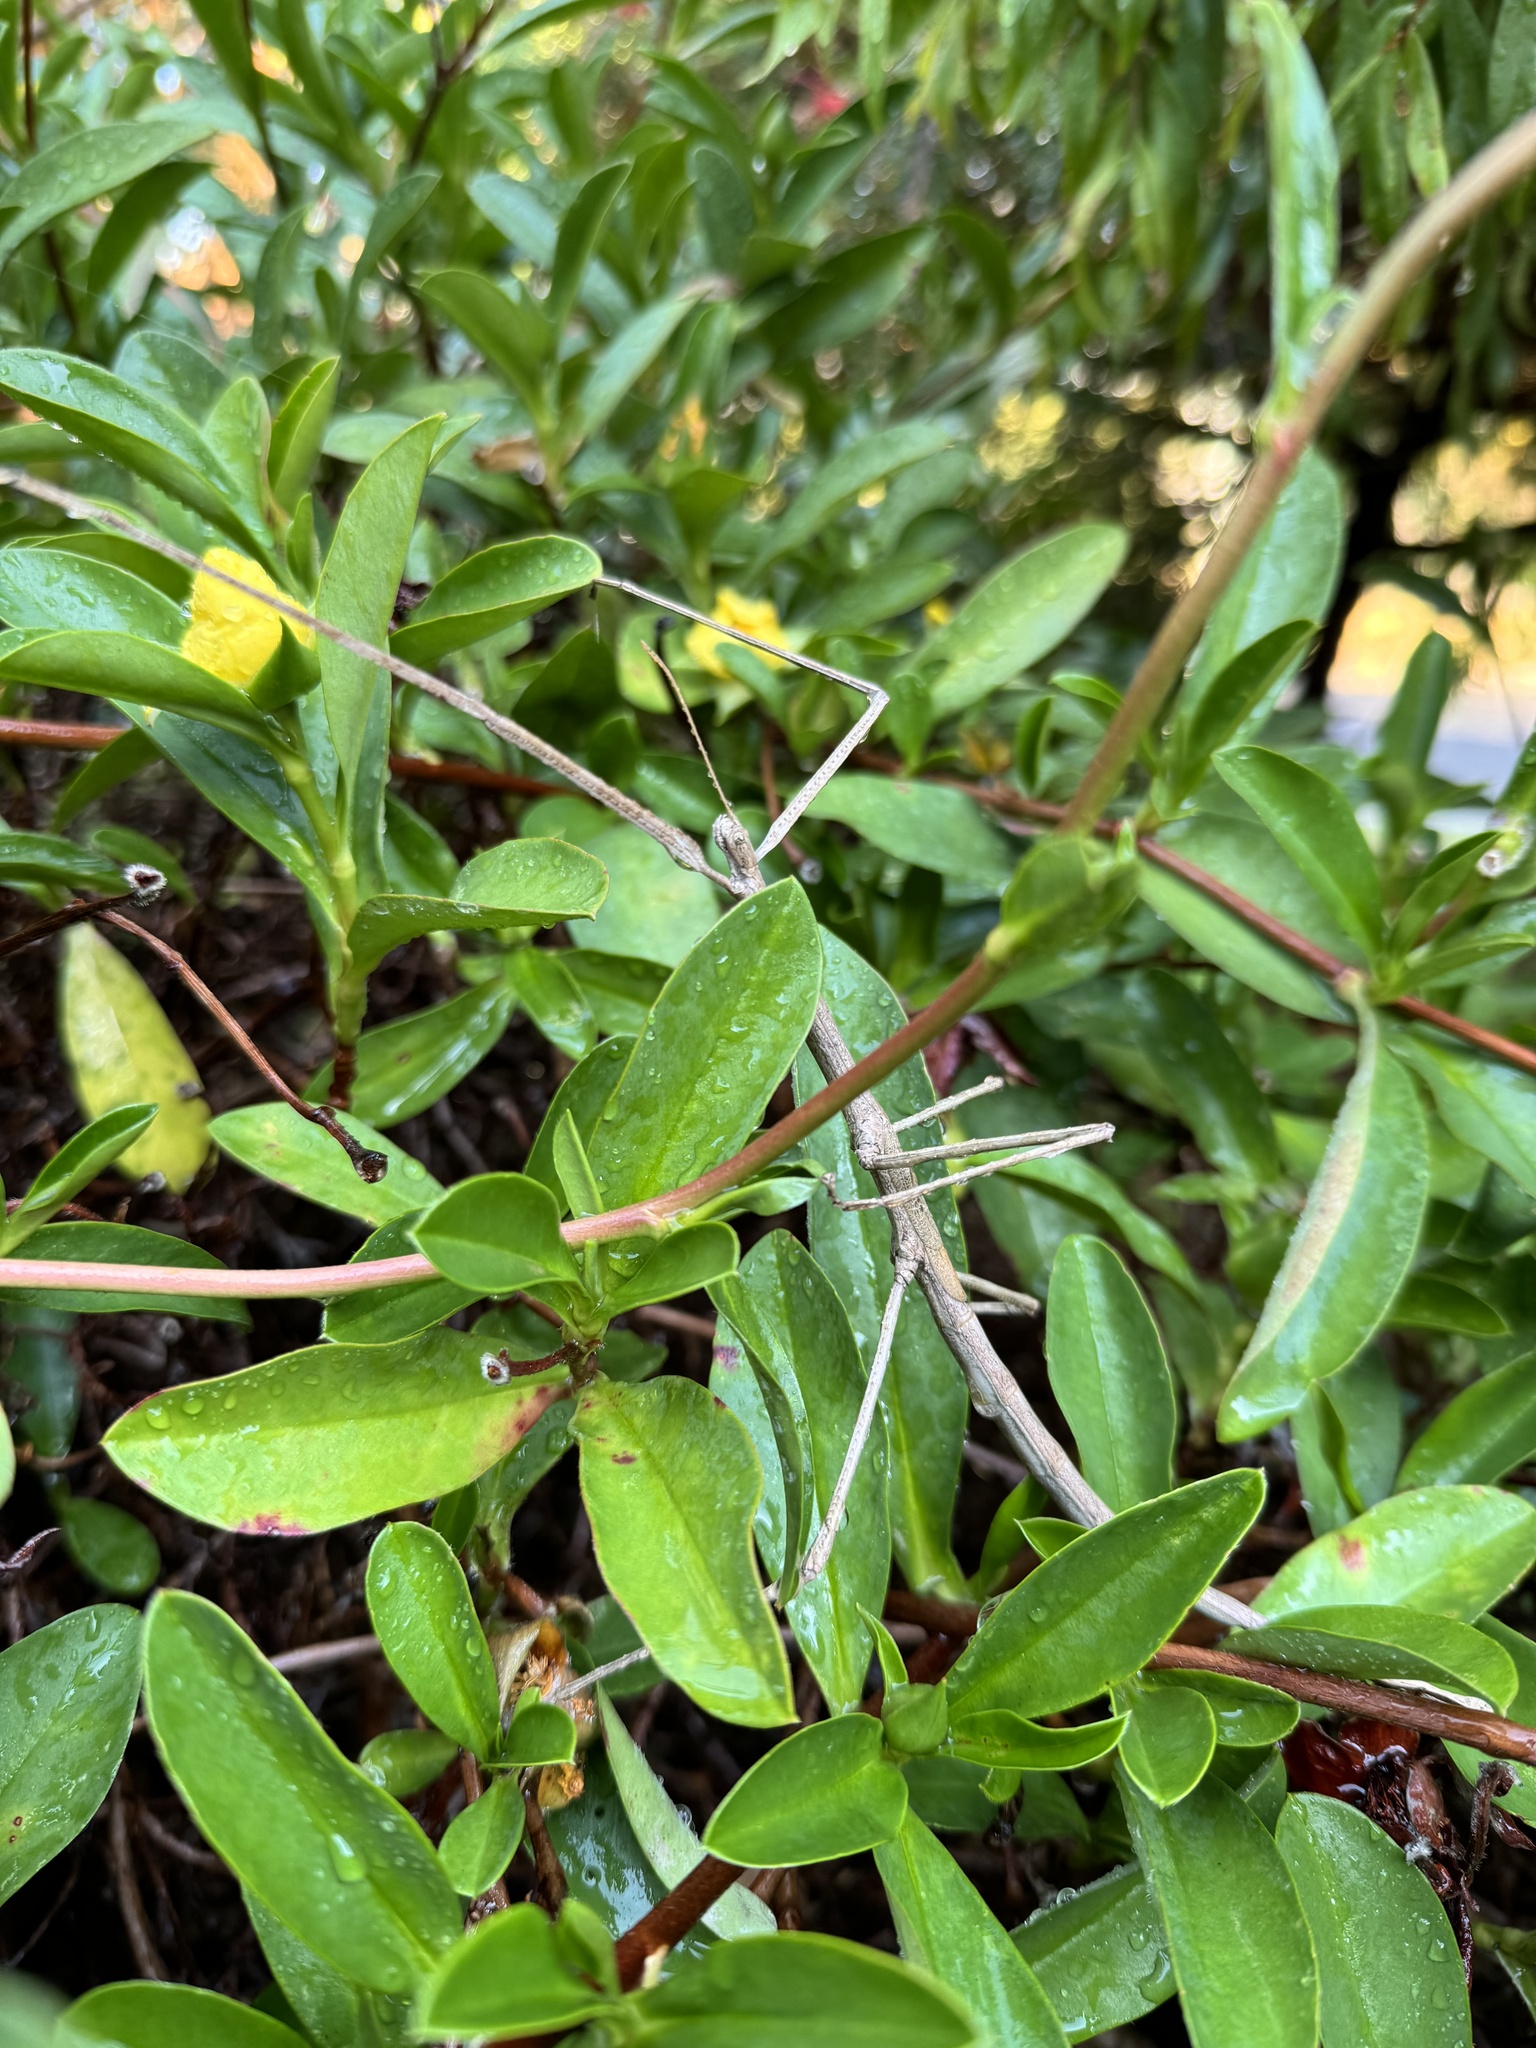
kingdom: Animalia
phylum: Arthropoda
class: Insecta
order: Phasmida
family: Phasmatidae
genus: Ctenomorpha
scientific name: Ctenomorpha marginipennis
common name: Margined-winged stick-insect
